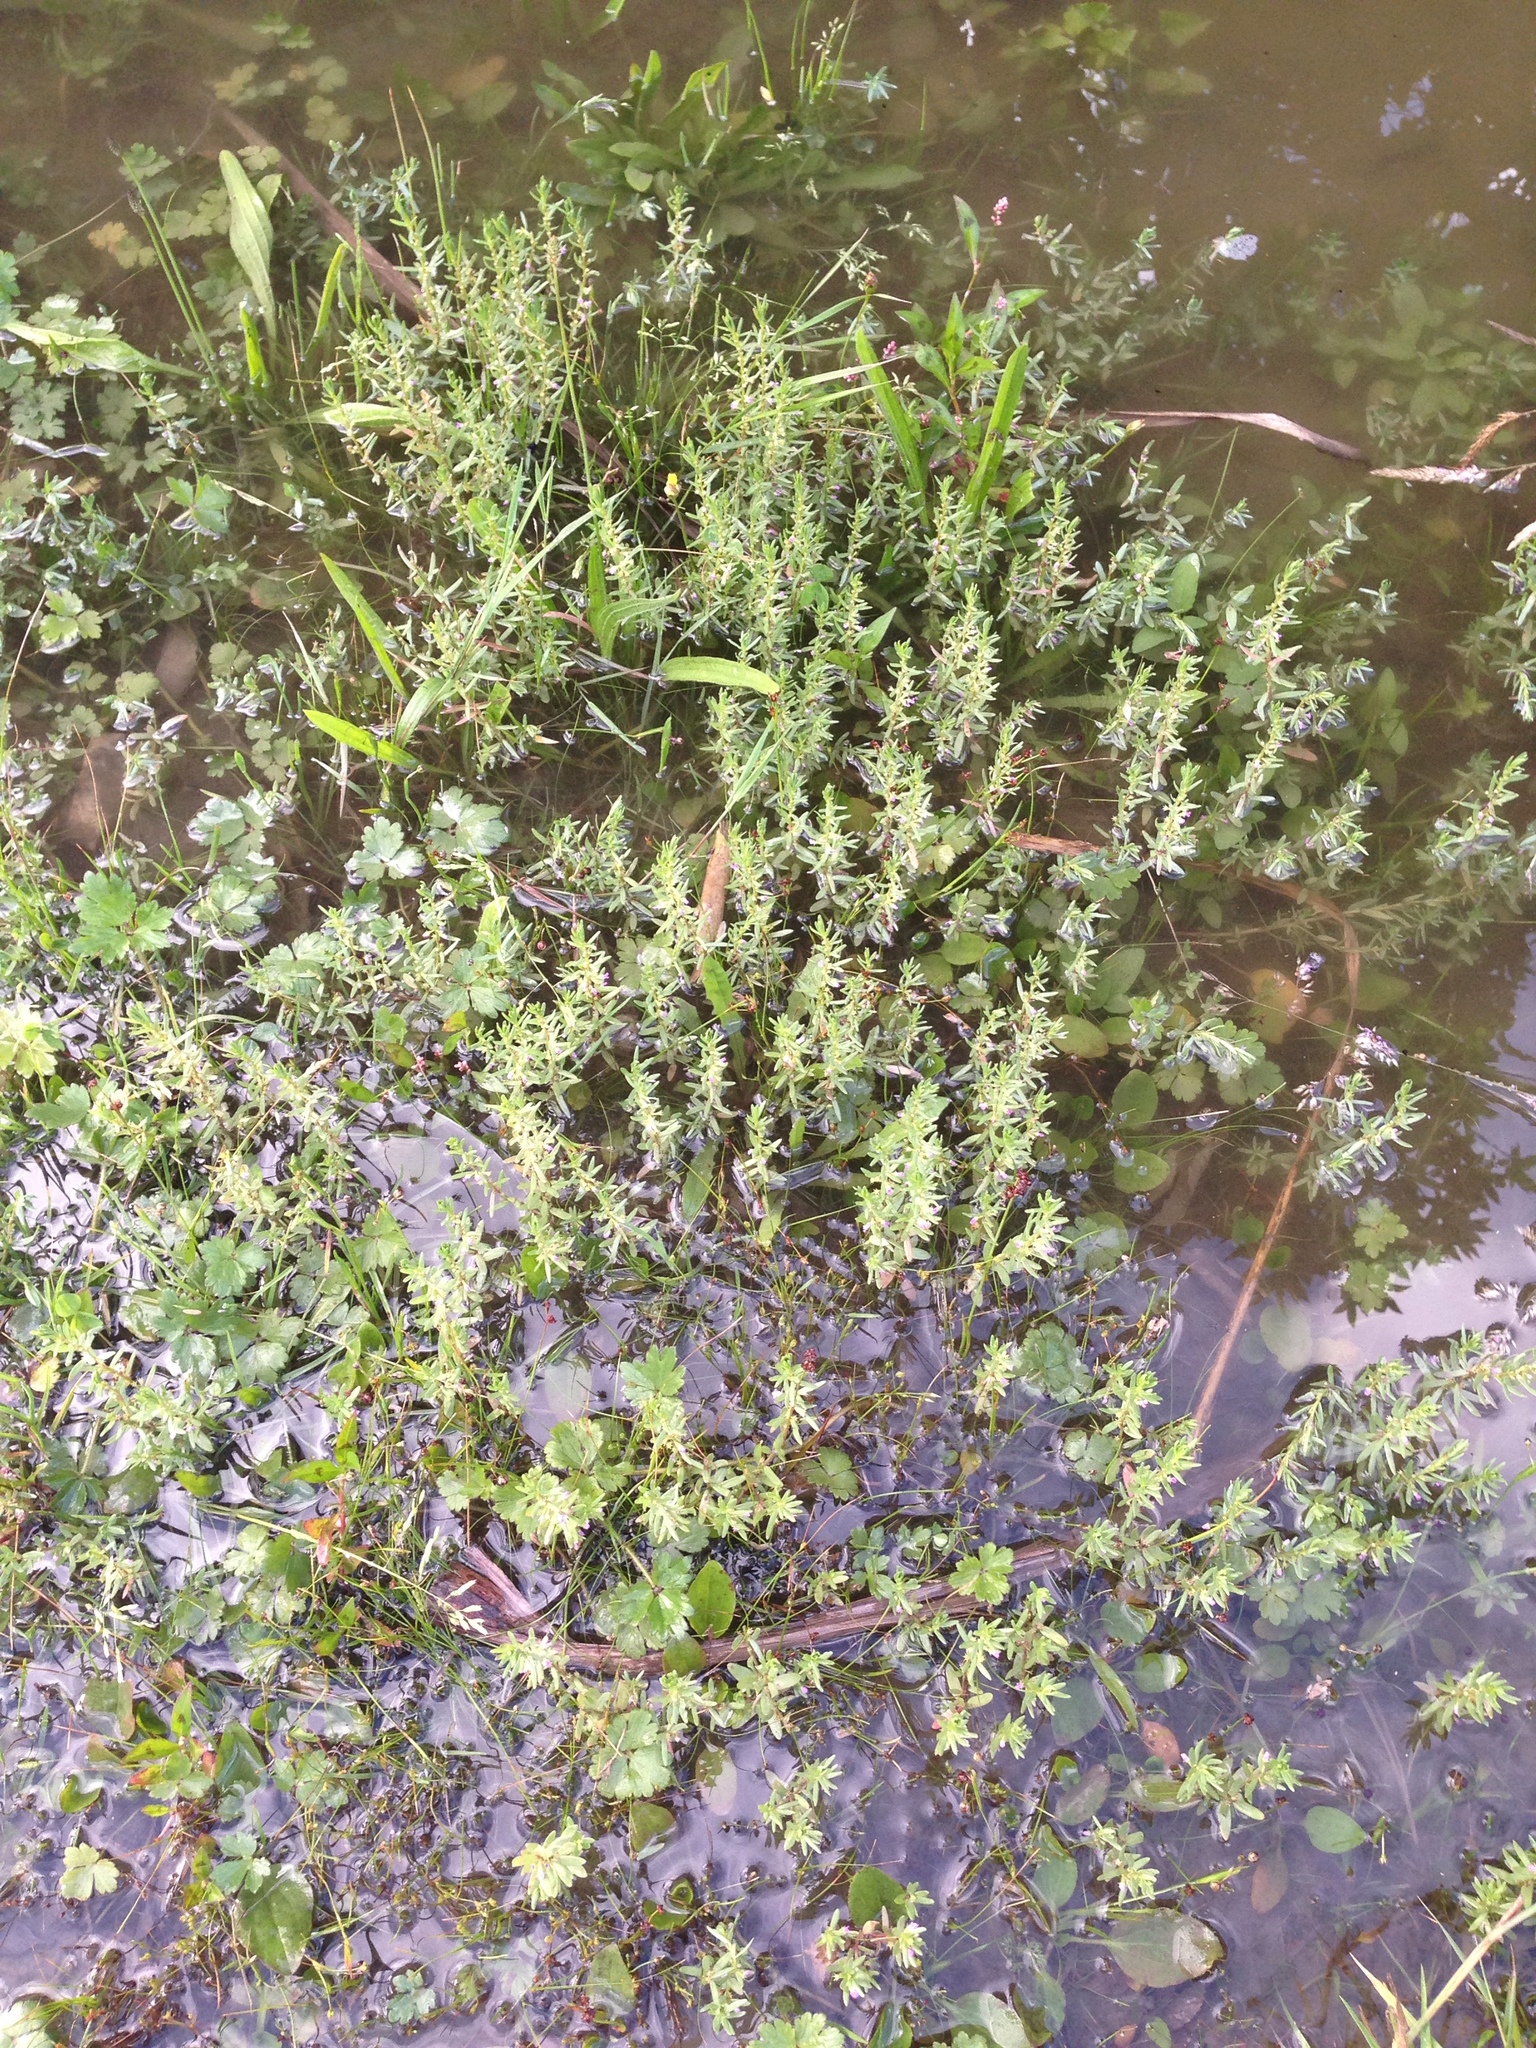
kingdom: Plantae
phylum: Tracheophyta
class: Magnoliopsida
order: Myrtales
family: Lythraceae
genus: Lythrum
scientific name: Lythrum hyssopifolia
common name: Grass-poly
